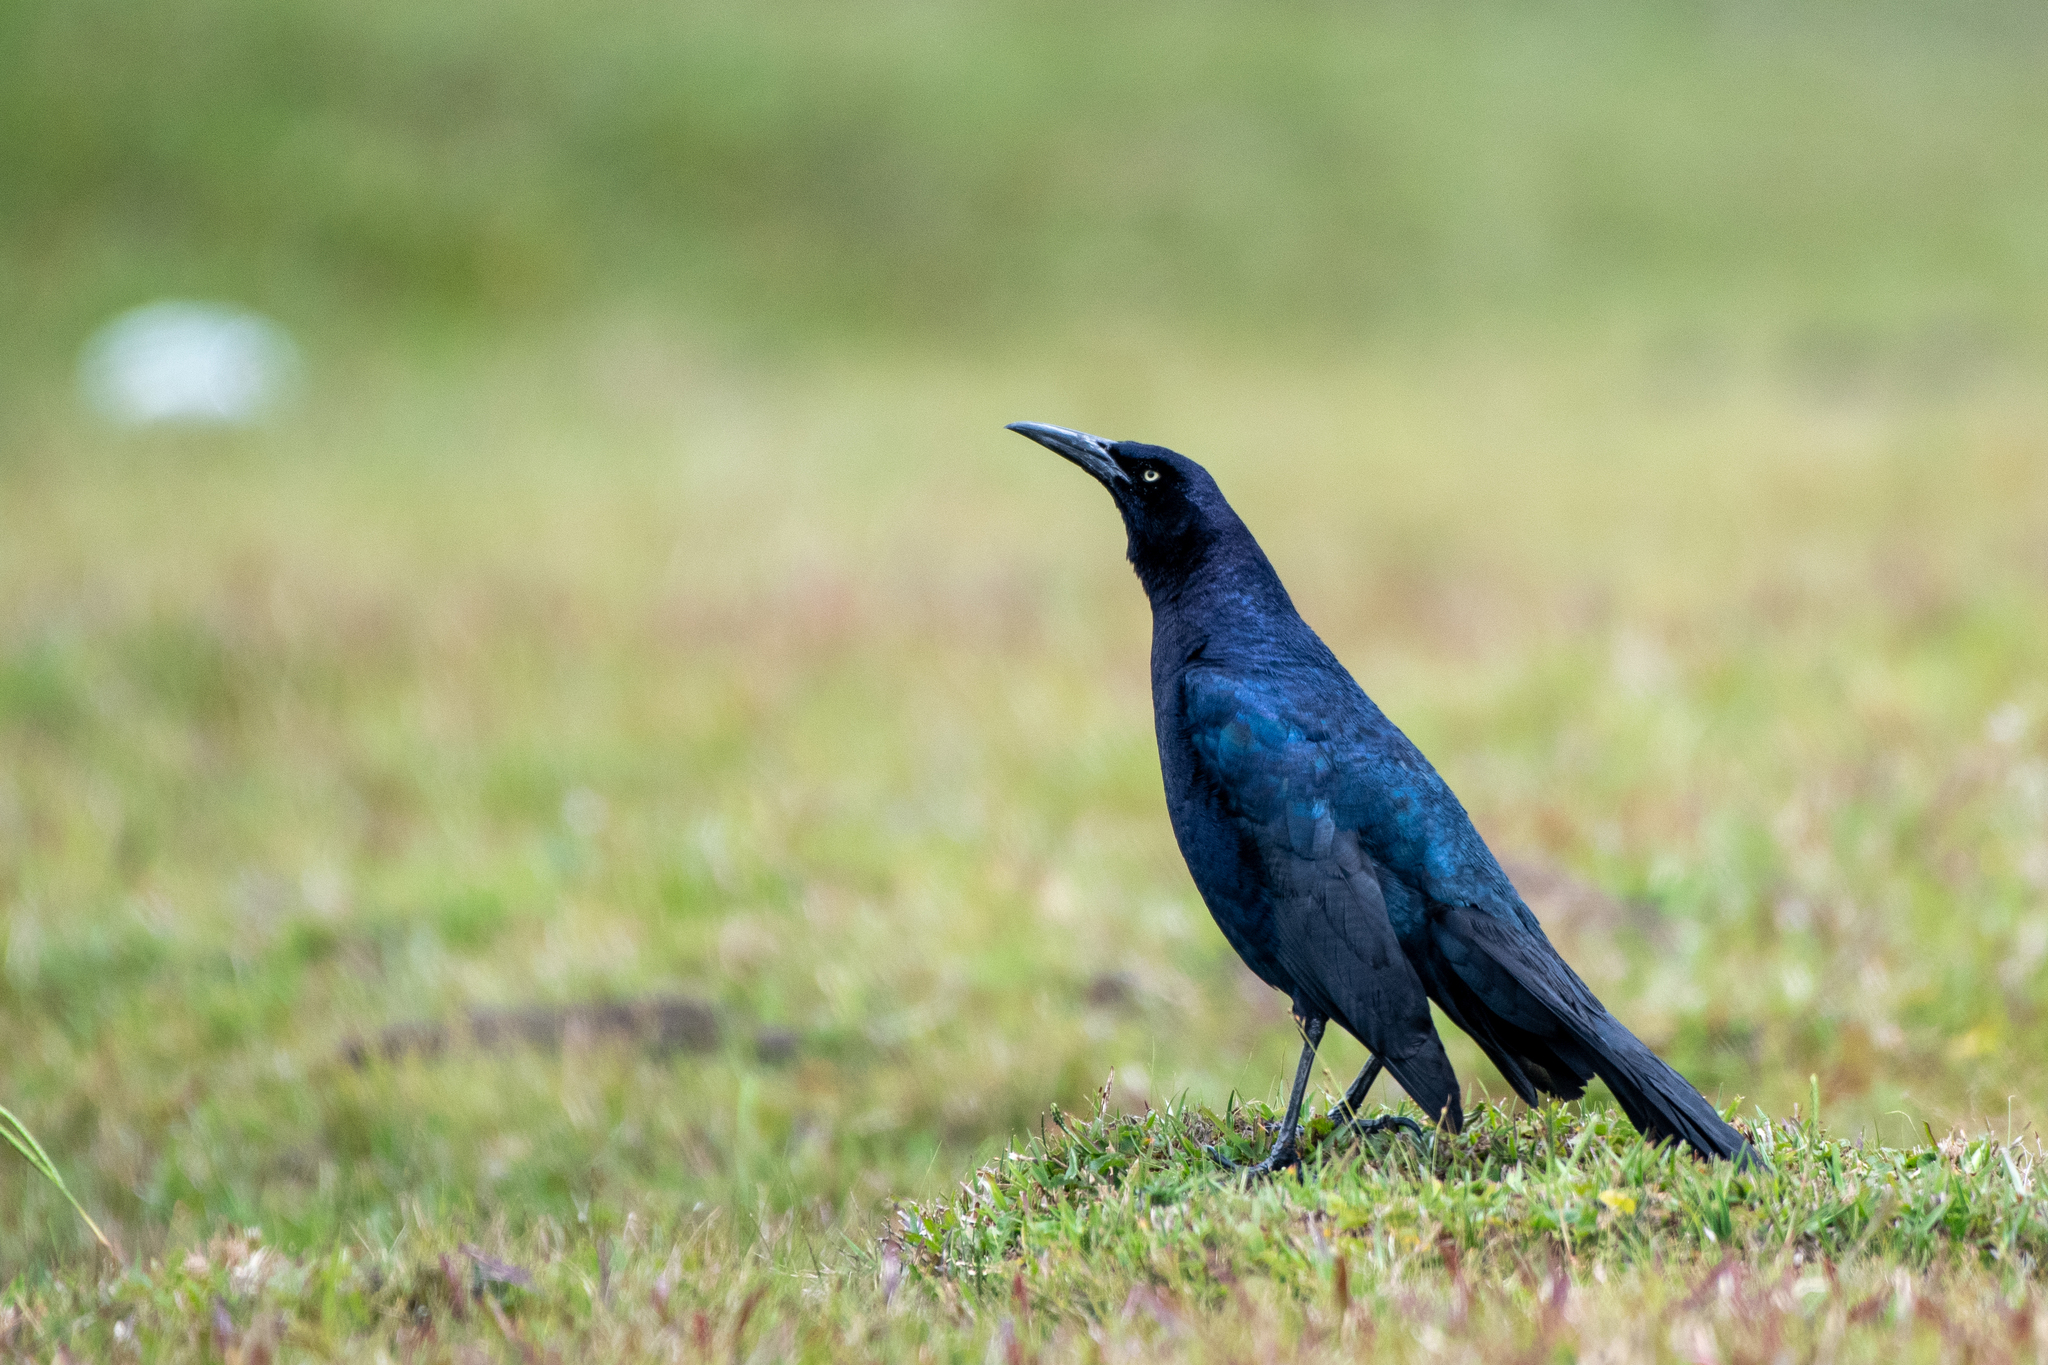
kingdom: Animalia
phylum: Chordata
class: Aves
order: Passeriformes
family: Icteridae
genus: Quiscalus
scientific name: Quiscalus mexicanus
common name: Great-tailed grackle
